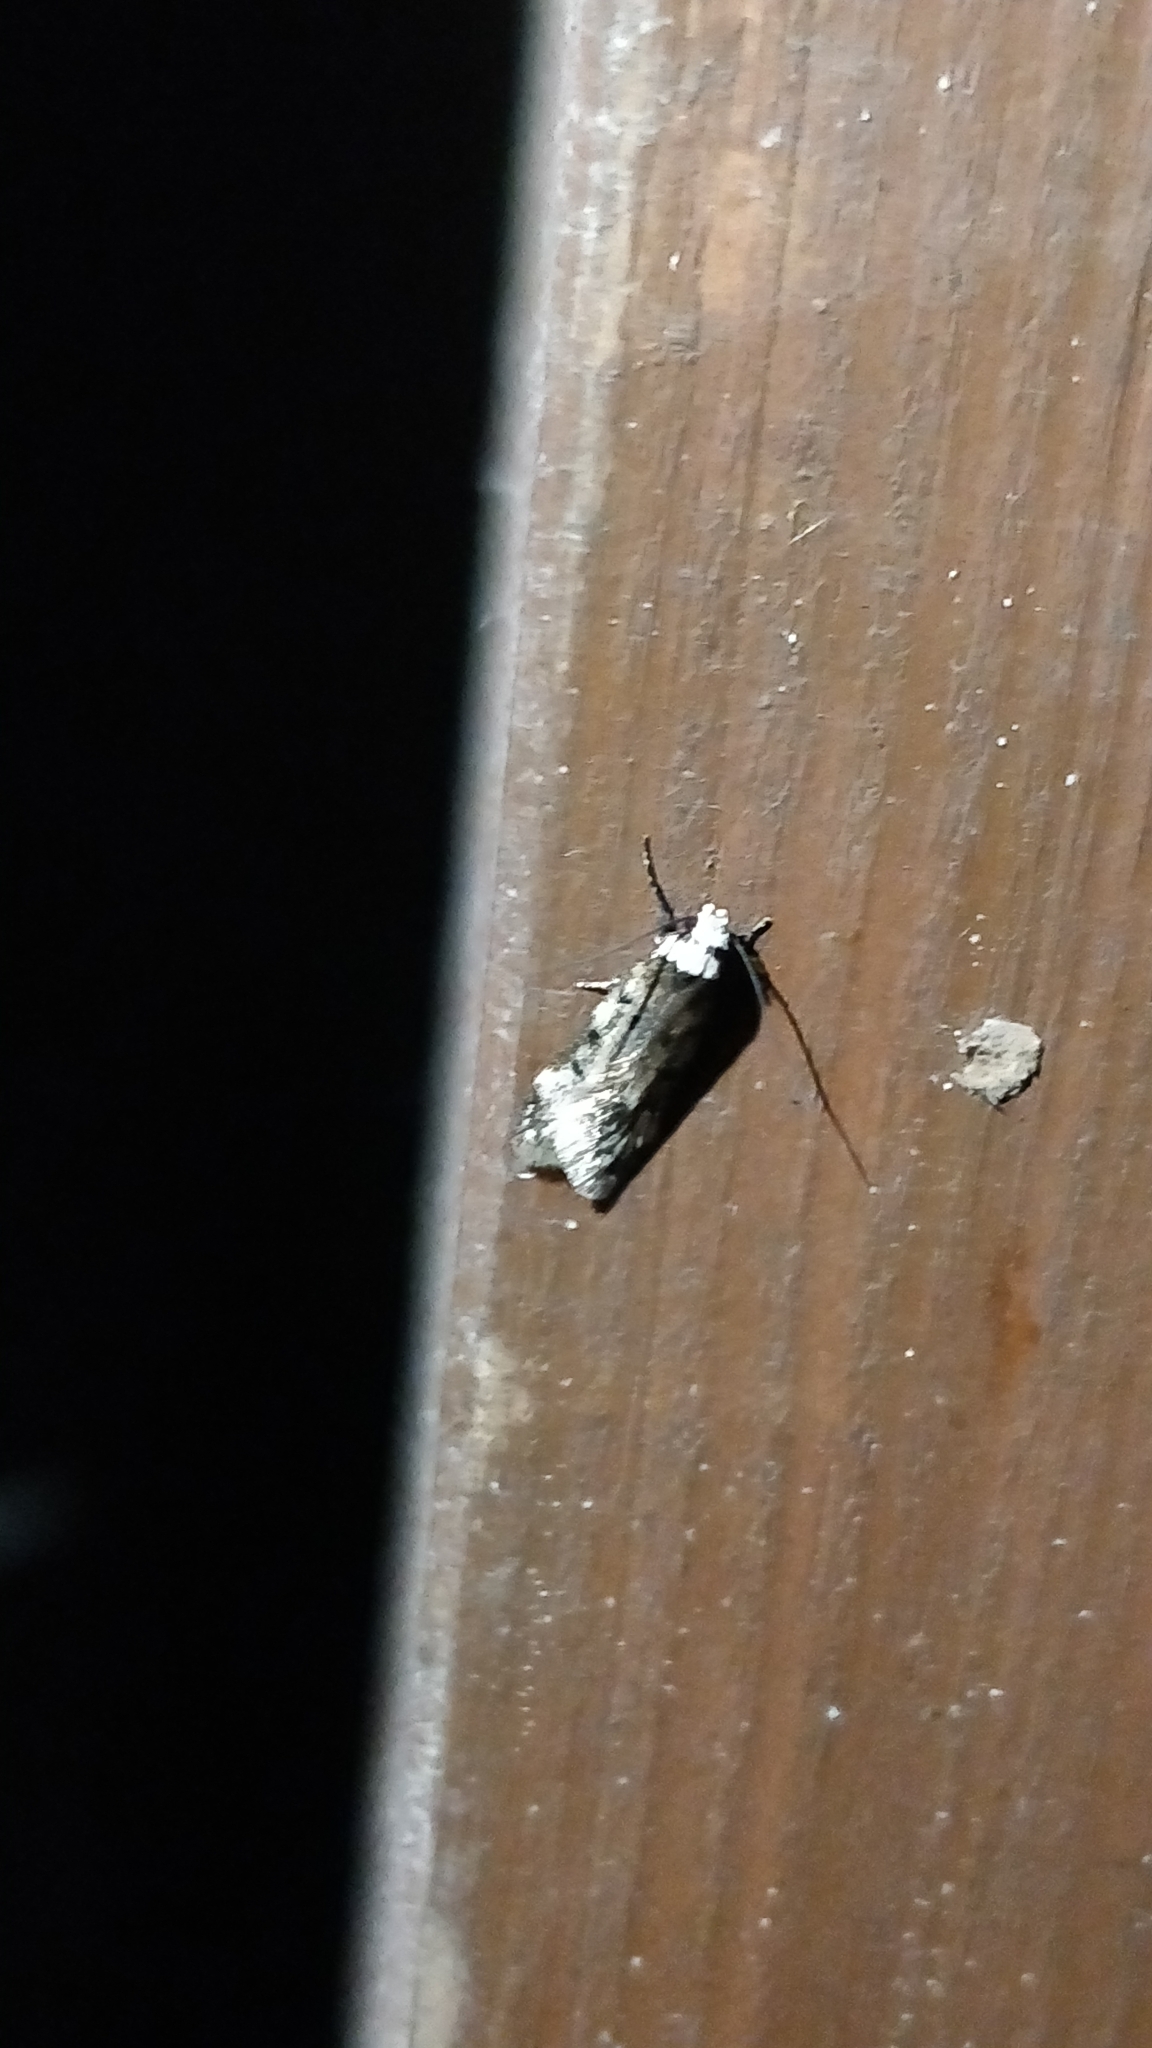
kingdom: Animalia
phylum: Arthropoda
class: Insecta
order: Lepidoptera
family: Oecophoridae
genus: Endrosis
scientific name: Endrosis sarcitrella
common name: White-shouldered house moth
